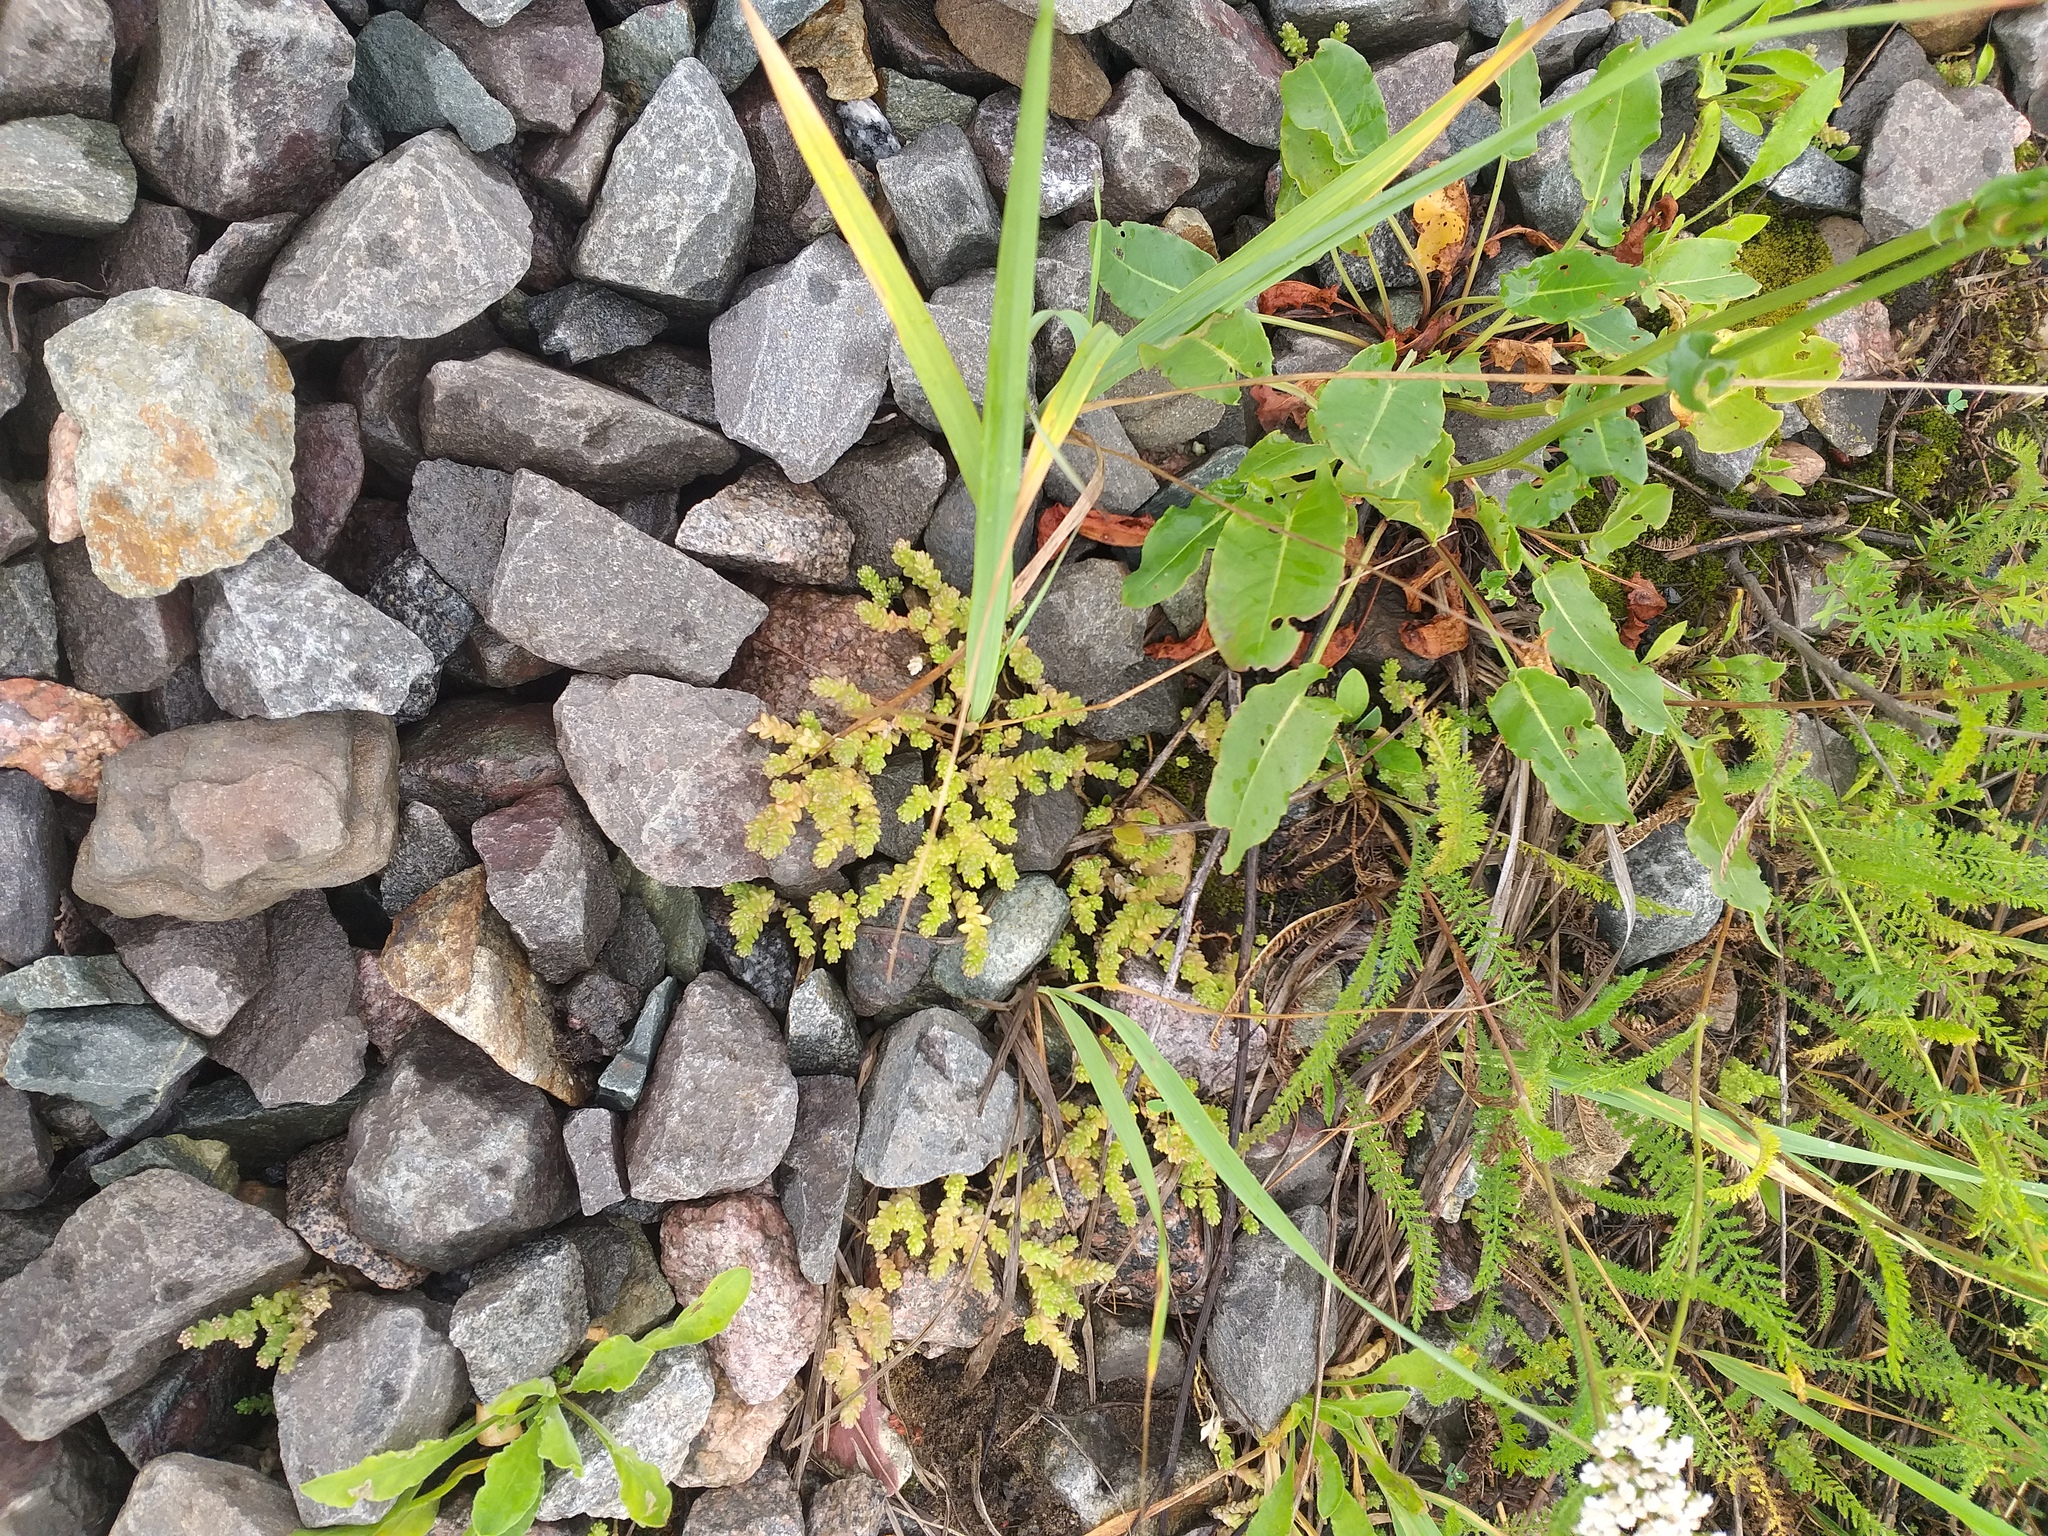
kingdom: Plantae
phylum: Tracheophyta
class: Magnoliopsida
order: Saxifragales
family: Crassulaceae
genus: Sedum
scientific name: Sedum acre
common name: Biting stonecrop
